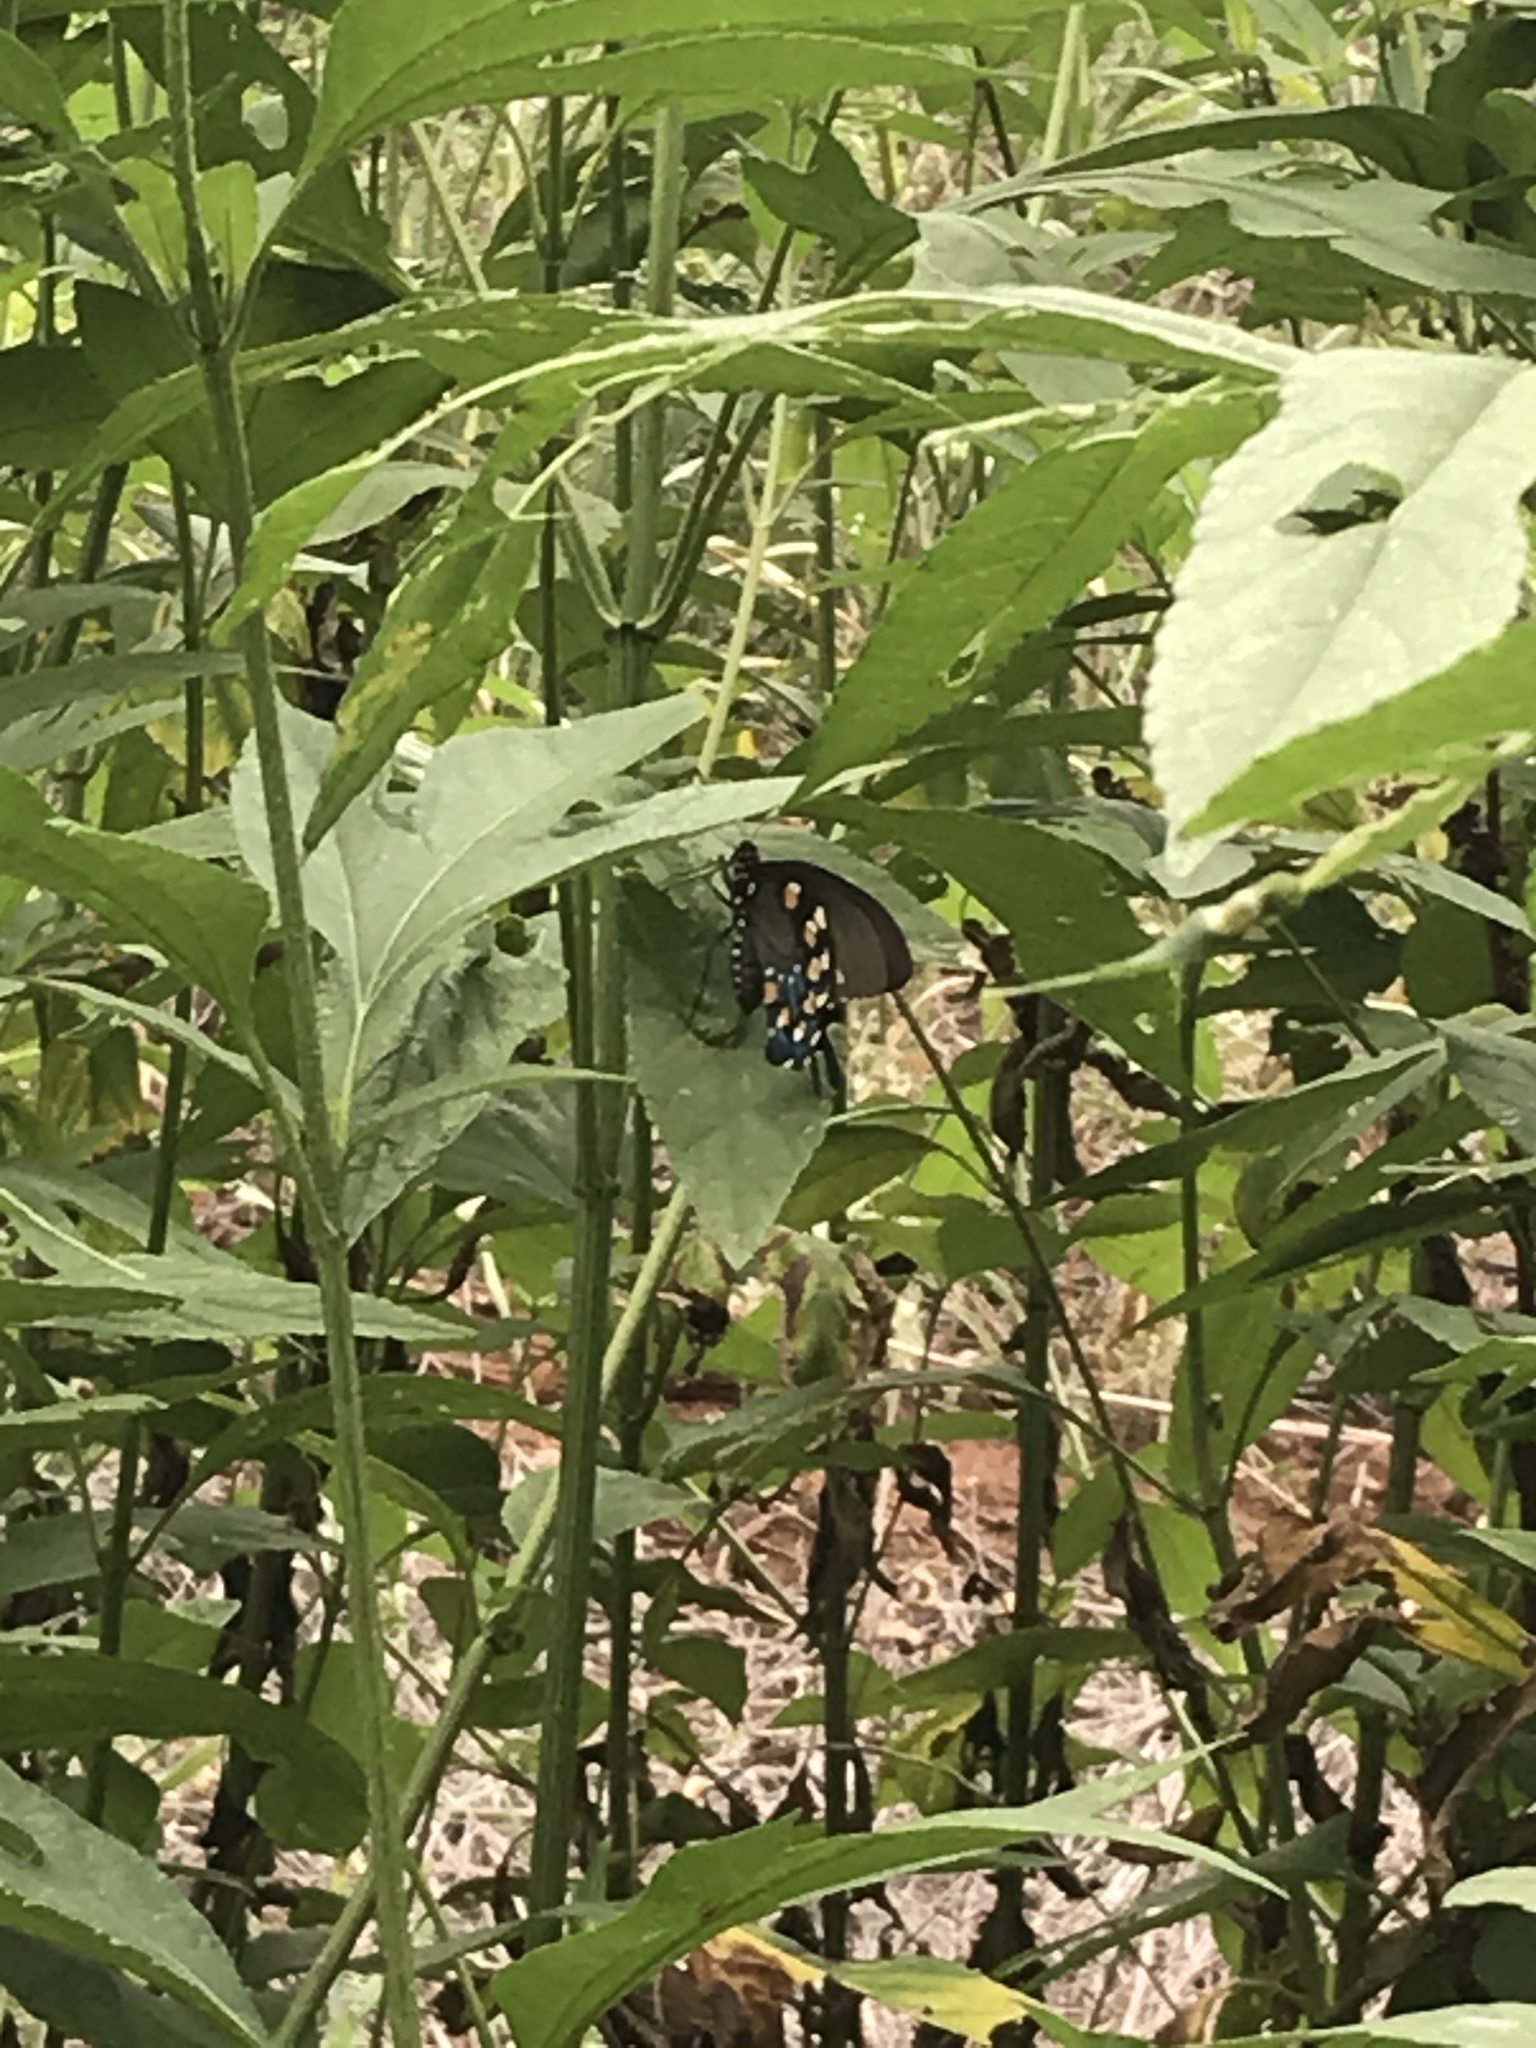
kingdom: Animalia
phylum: Arthropoda
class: Insecta
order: Lepidoptera
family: Papilionidae
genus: Battus
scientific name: Battus philenor
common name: Pipevine swallowtail
